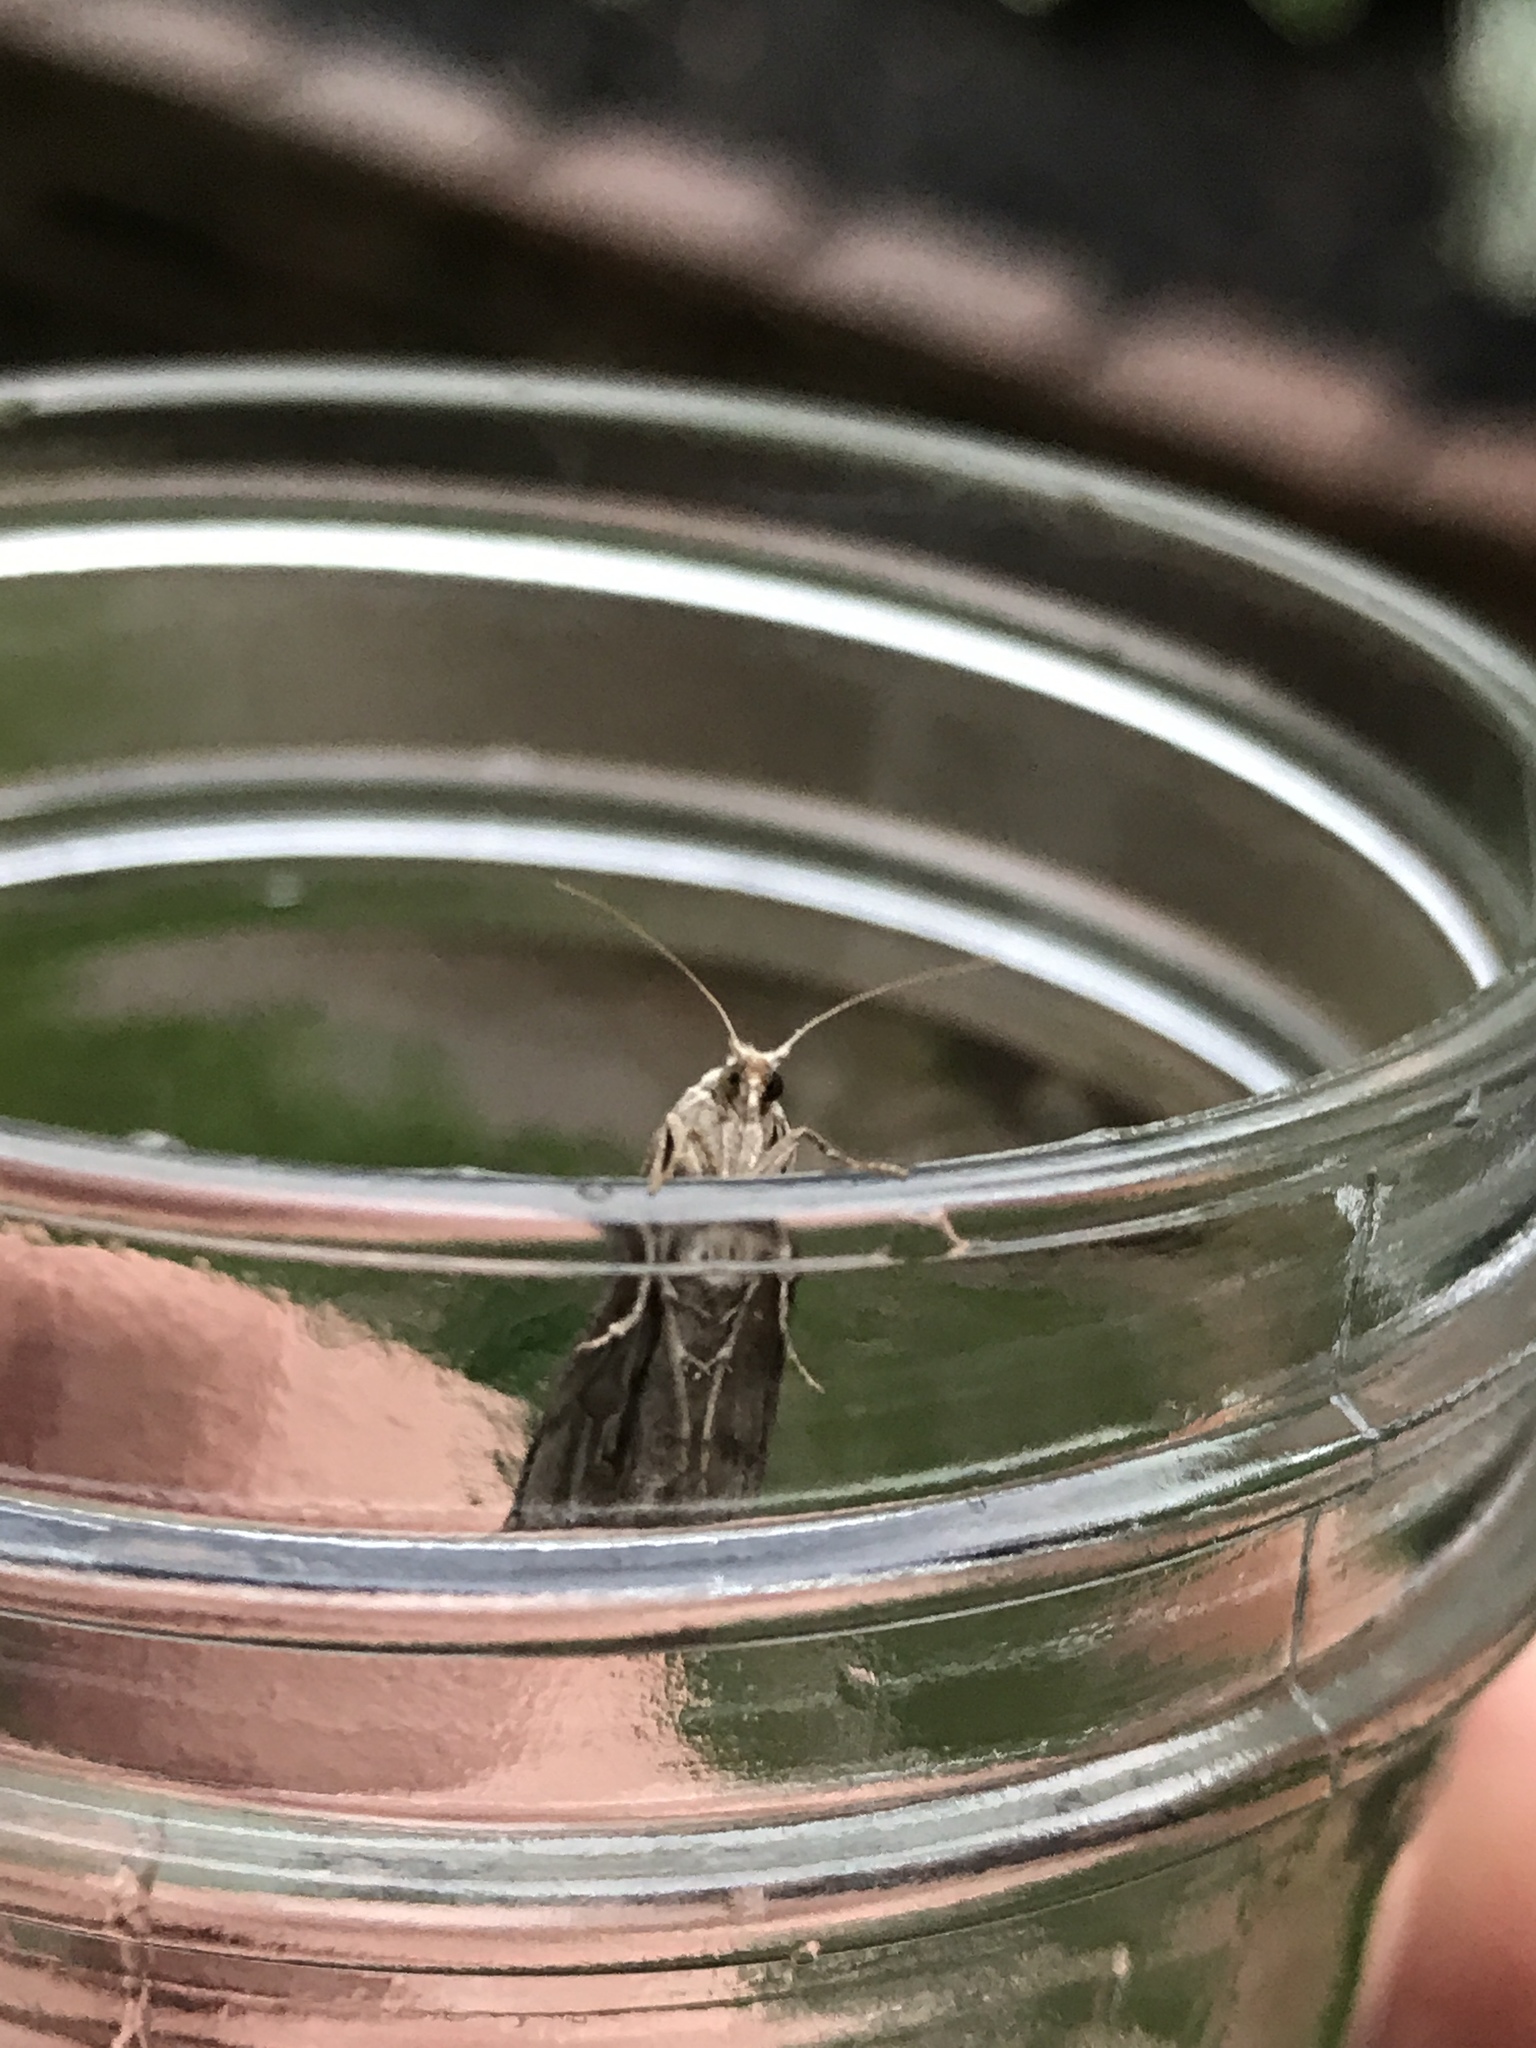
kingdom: Animalia
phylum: Arthropoda
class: Insecta
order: Lepidoptera
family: Pyralidae
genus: Aphomia
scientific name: Aphomia sociella
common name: Bee moth
